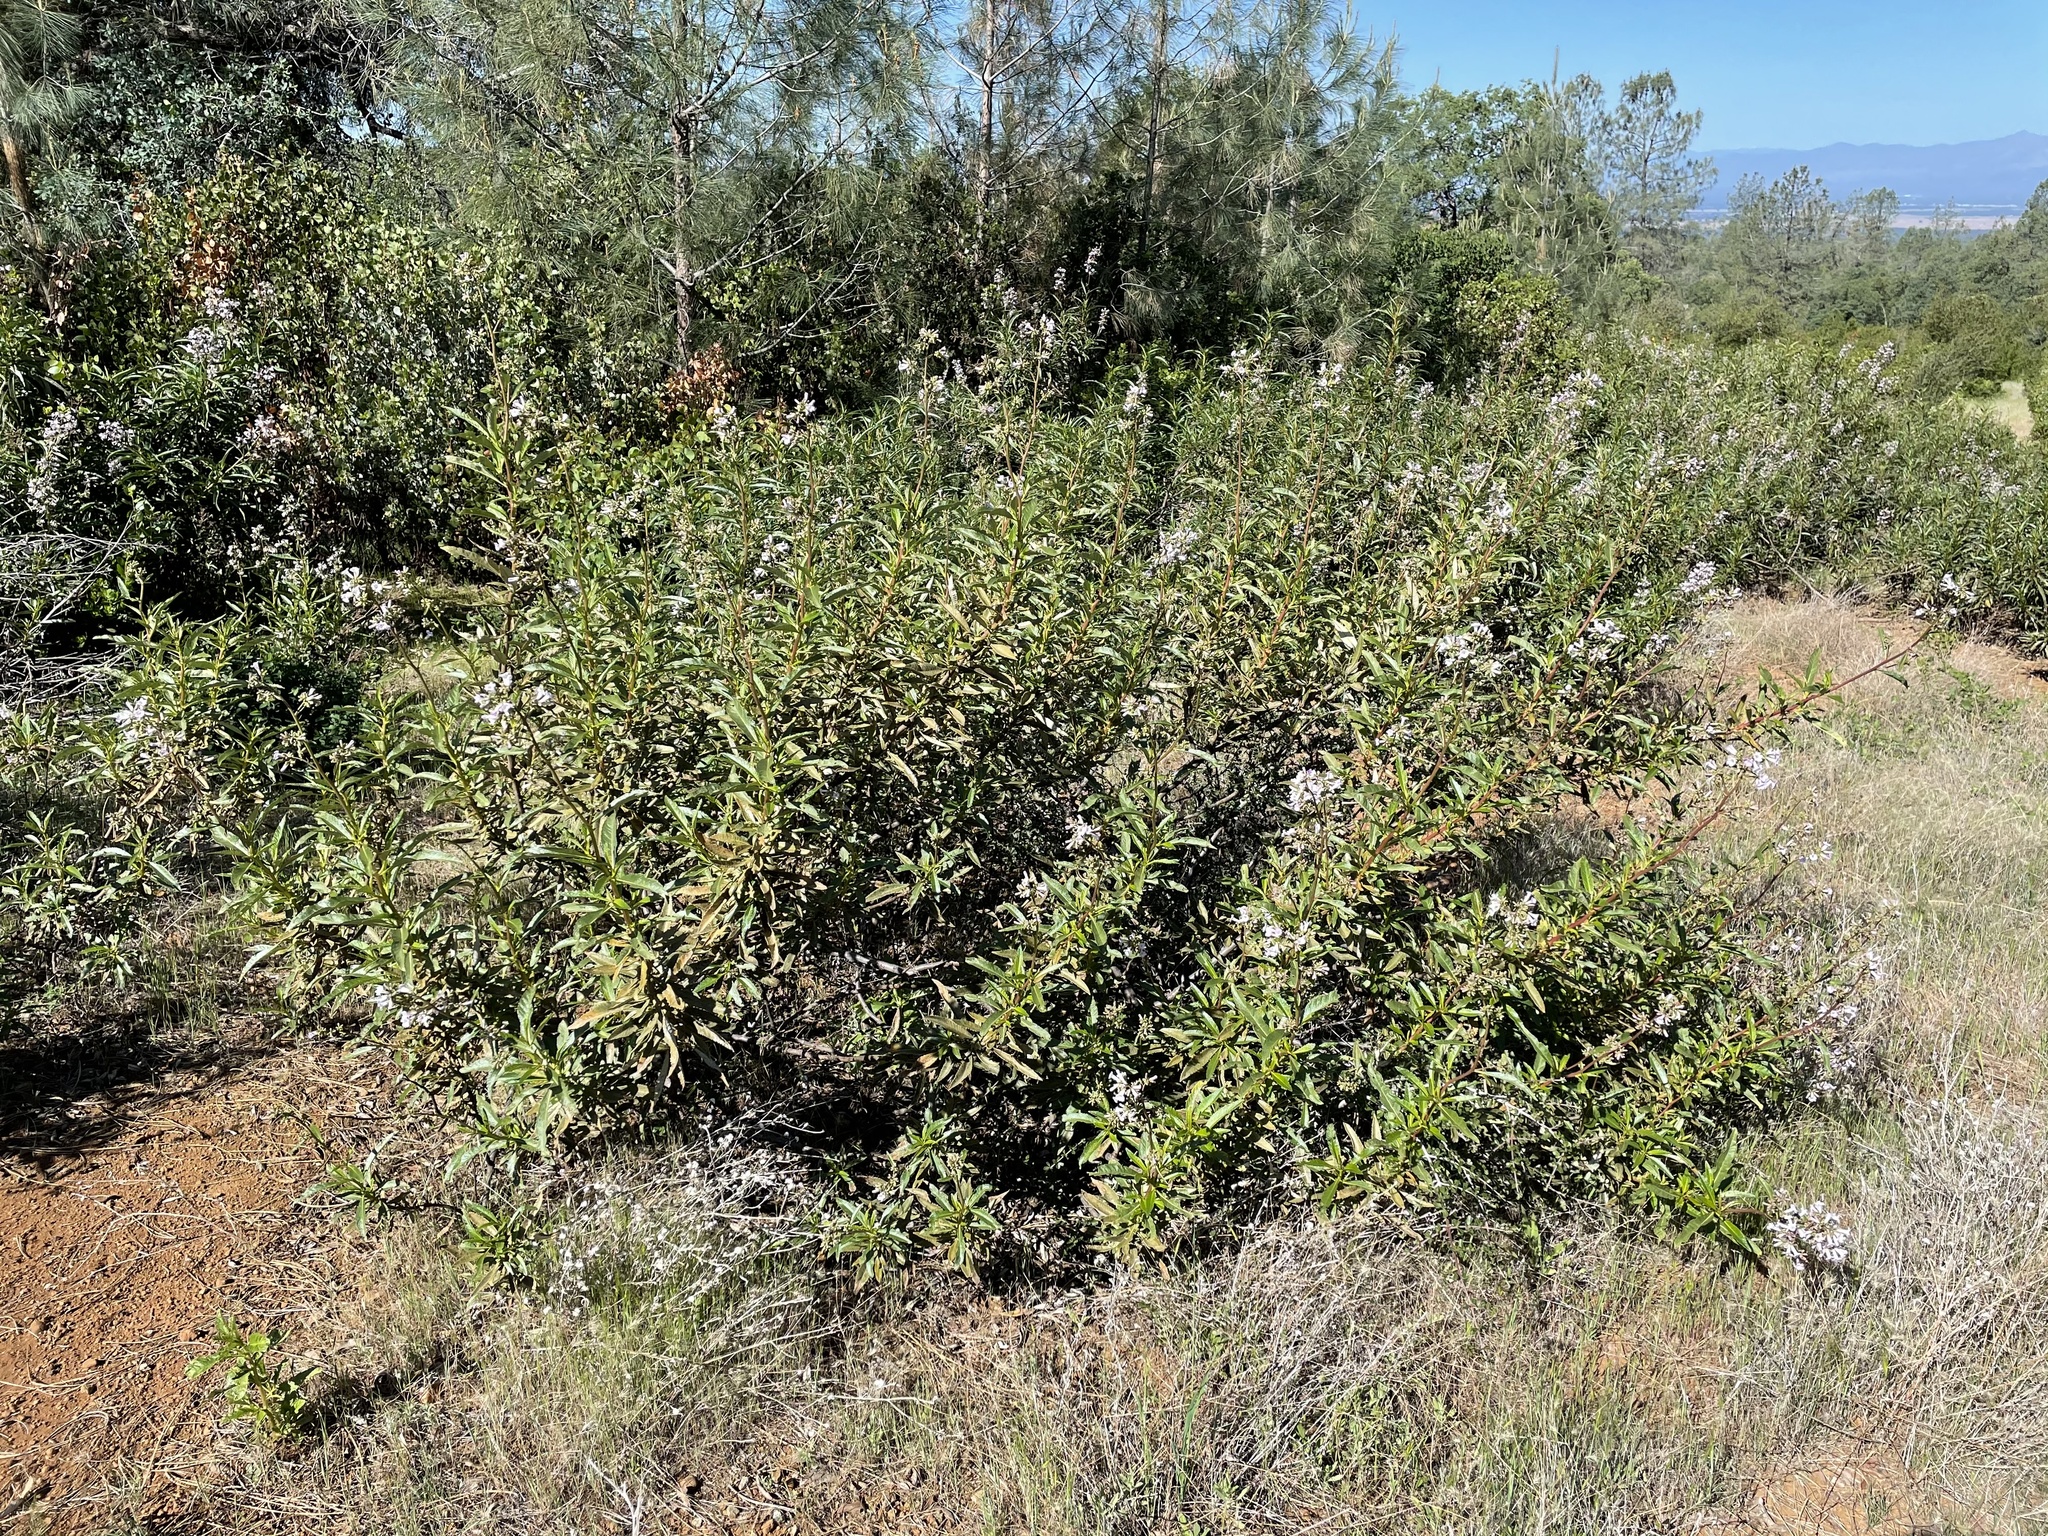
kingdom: Animalia
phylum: Arthropoda
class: Insecta
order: Coleoptera
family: Cleridae
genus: Trichodes
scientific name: Trichodes ornatus
